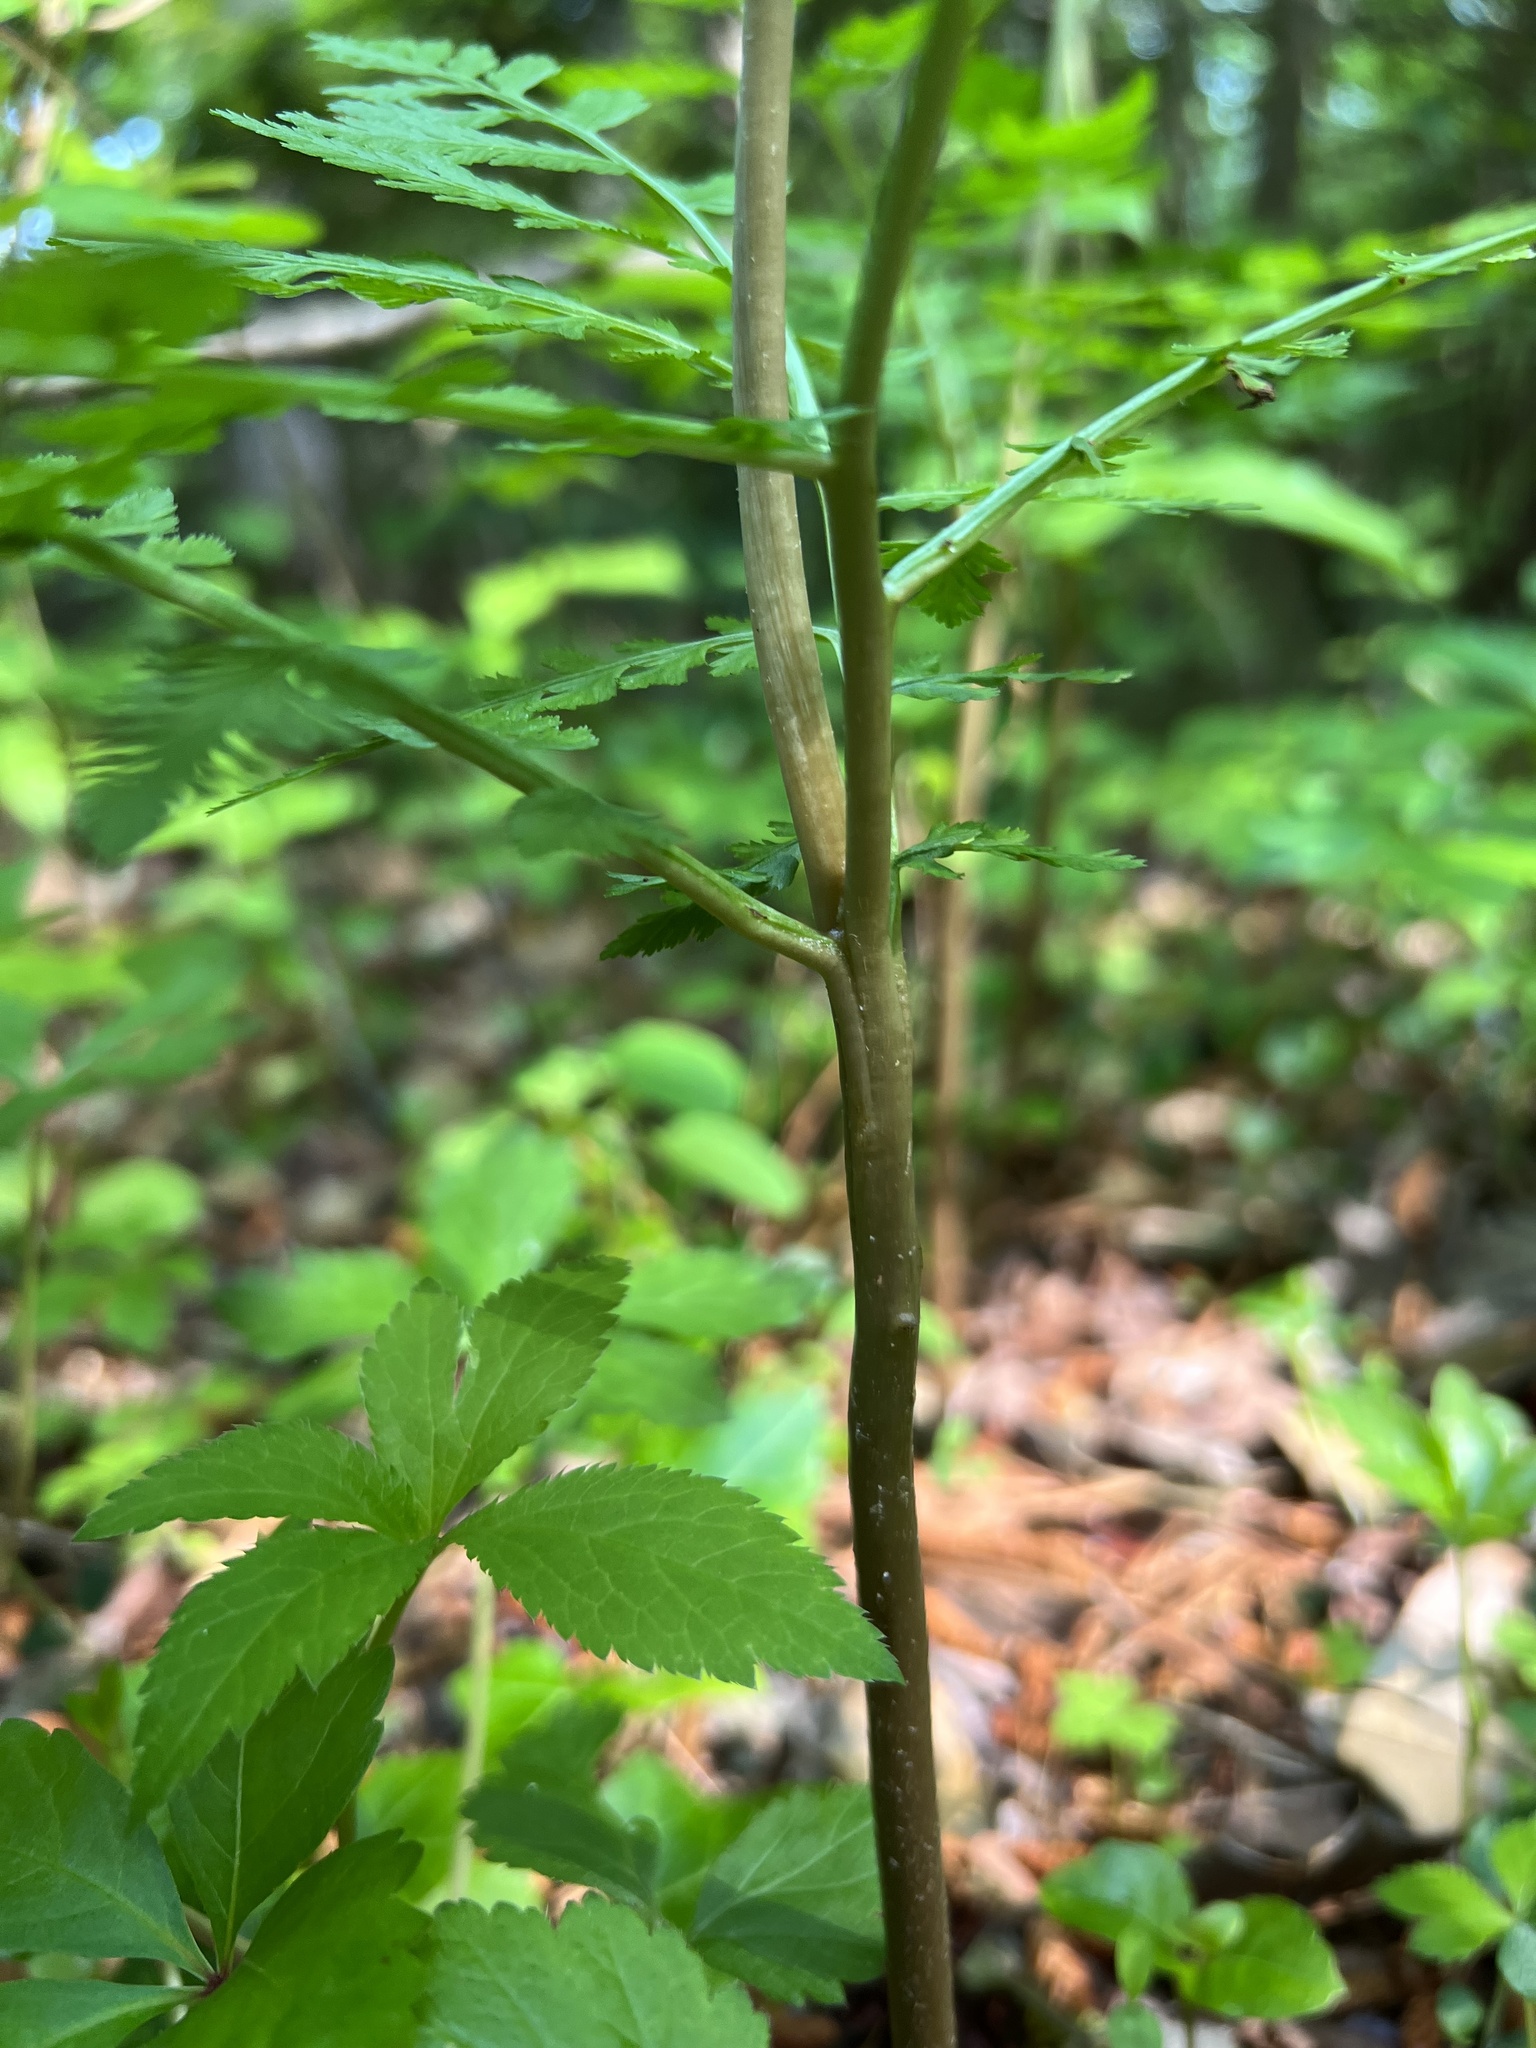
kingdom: Plantae
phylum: Tracheophyta
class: Polypodiopsida
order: Ophioglossales
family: Ophioglossaceae
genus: Botrypus
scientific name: Botrypus virginianus
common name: Common grapefern
